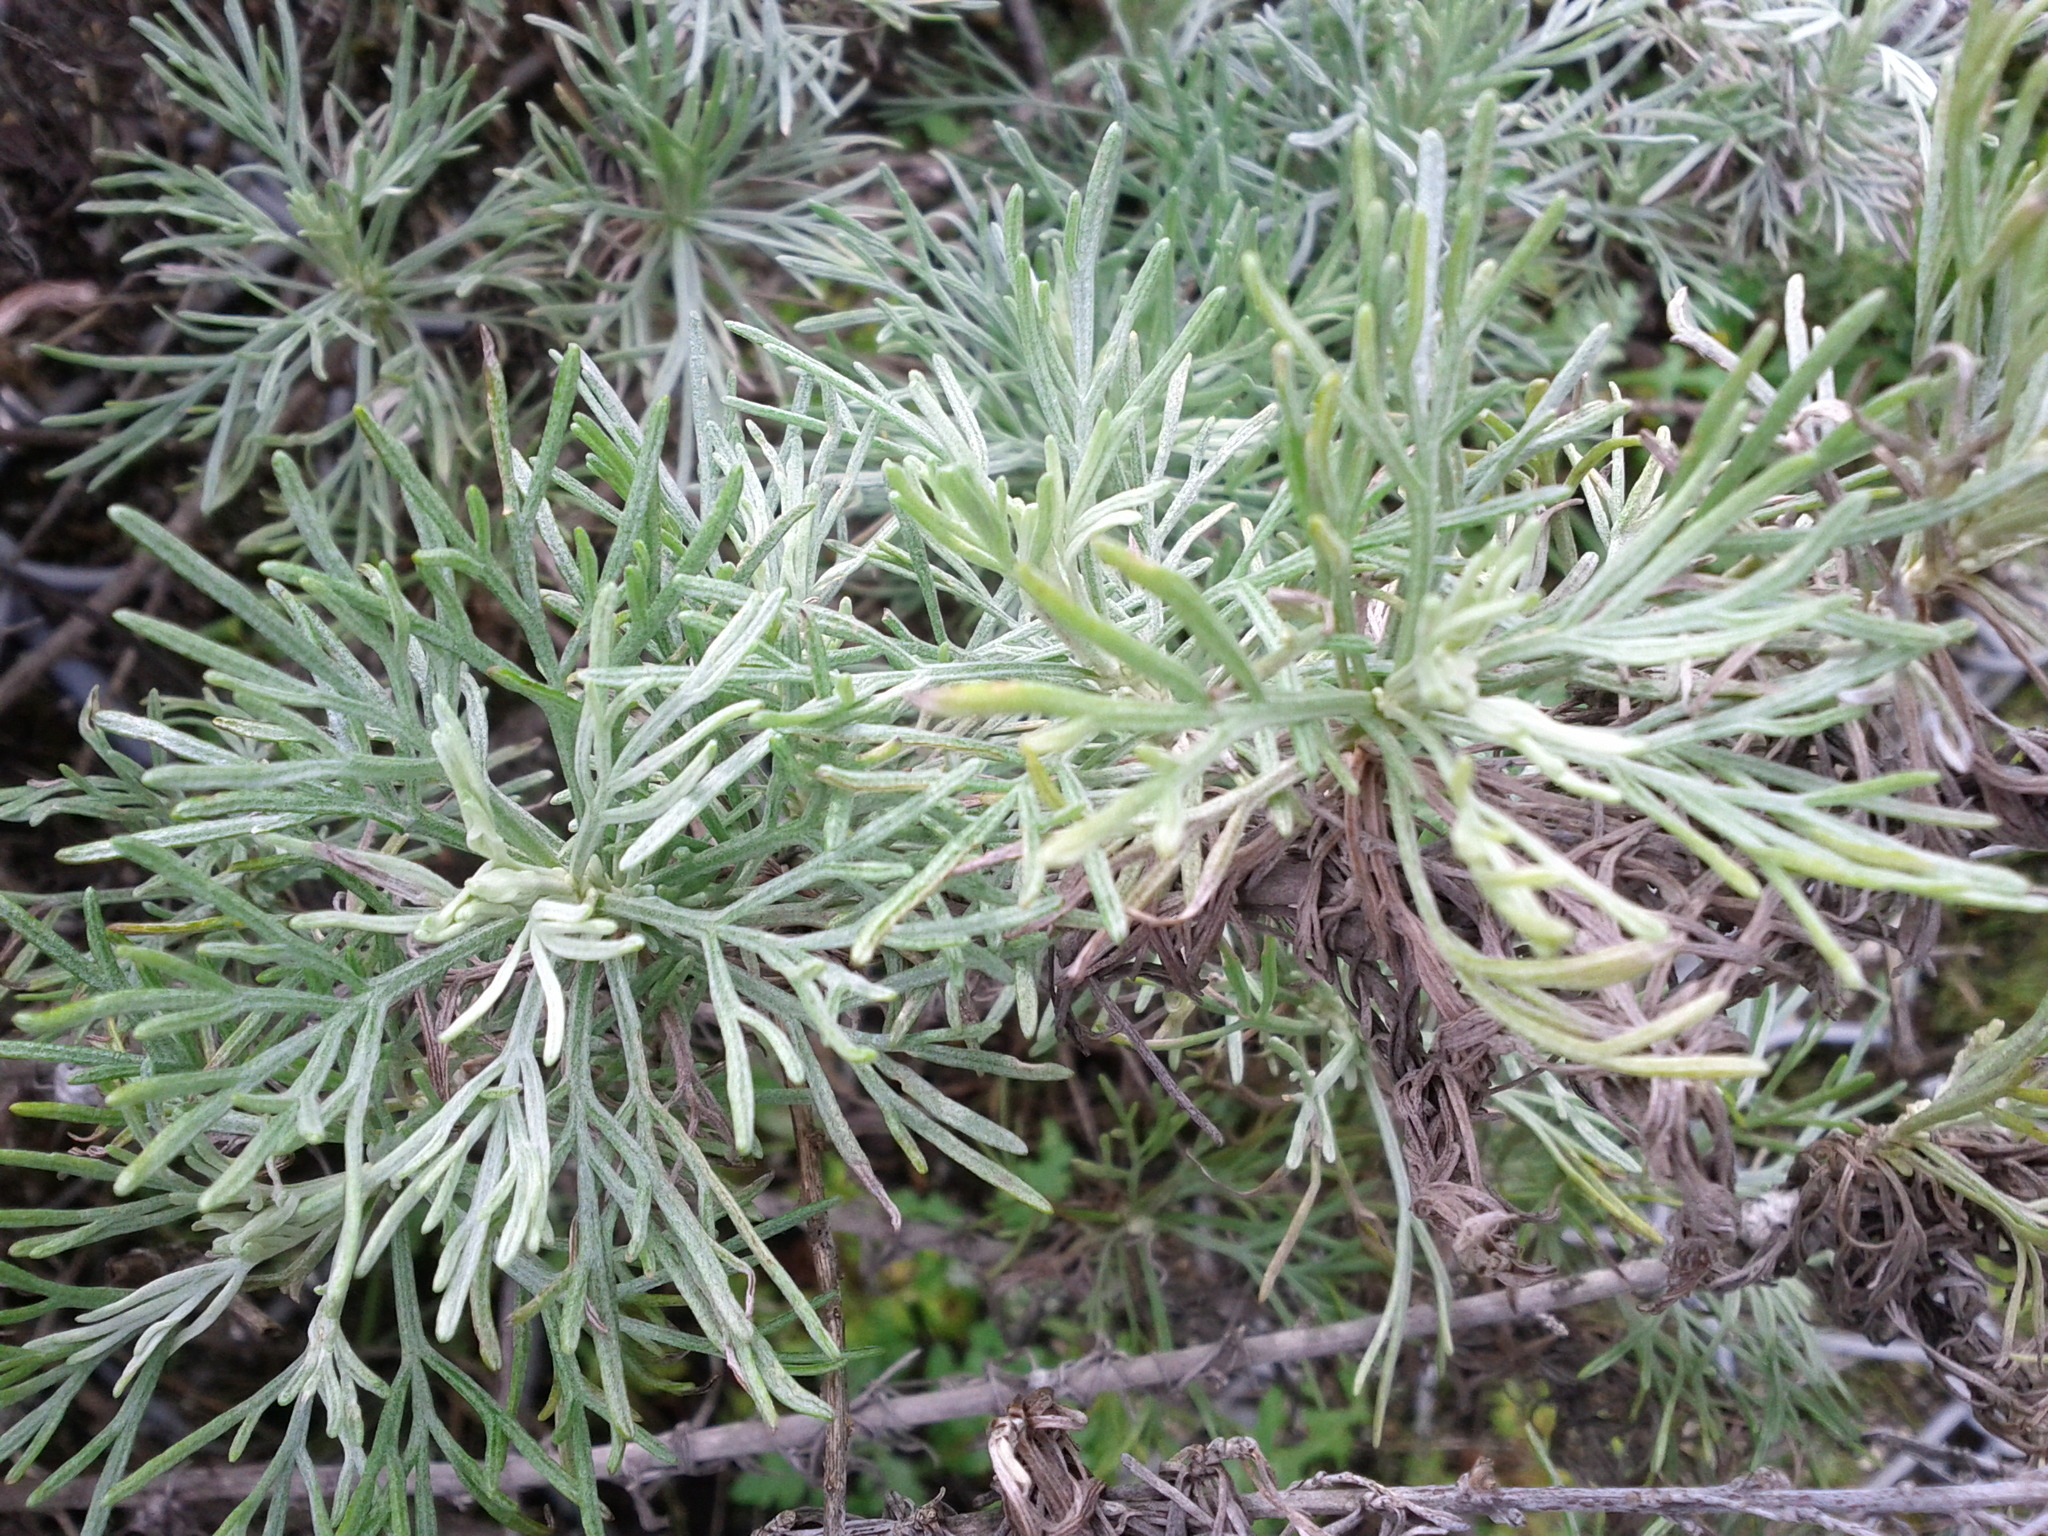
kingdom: Plantae
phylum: Tracheophyta
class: Magnoliopsida
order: Asterales
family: Asteraceae
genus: Artemisia
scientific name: Artemisia californica
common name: California sagebrush
